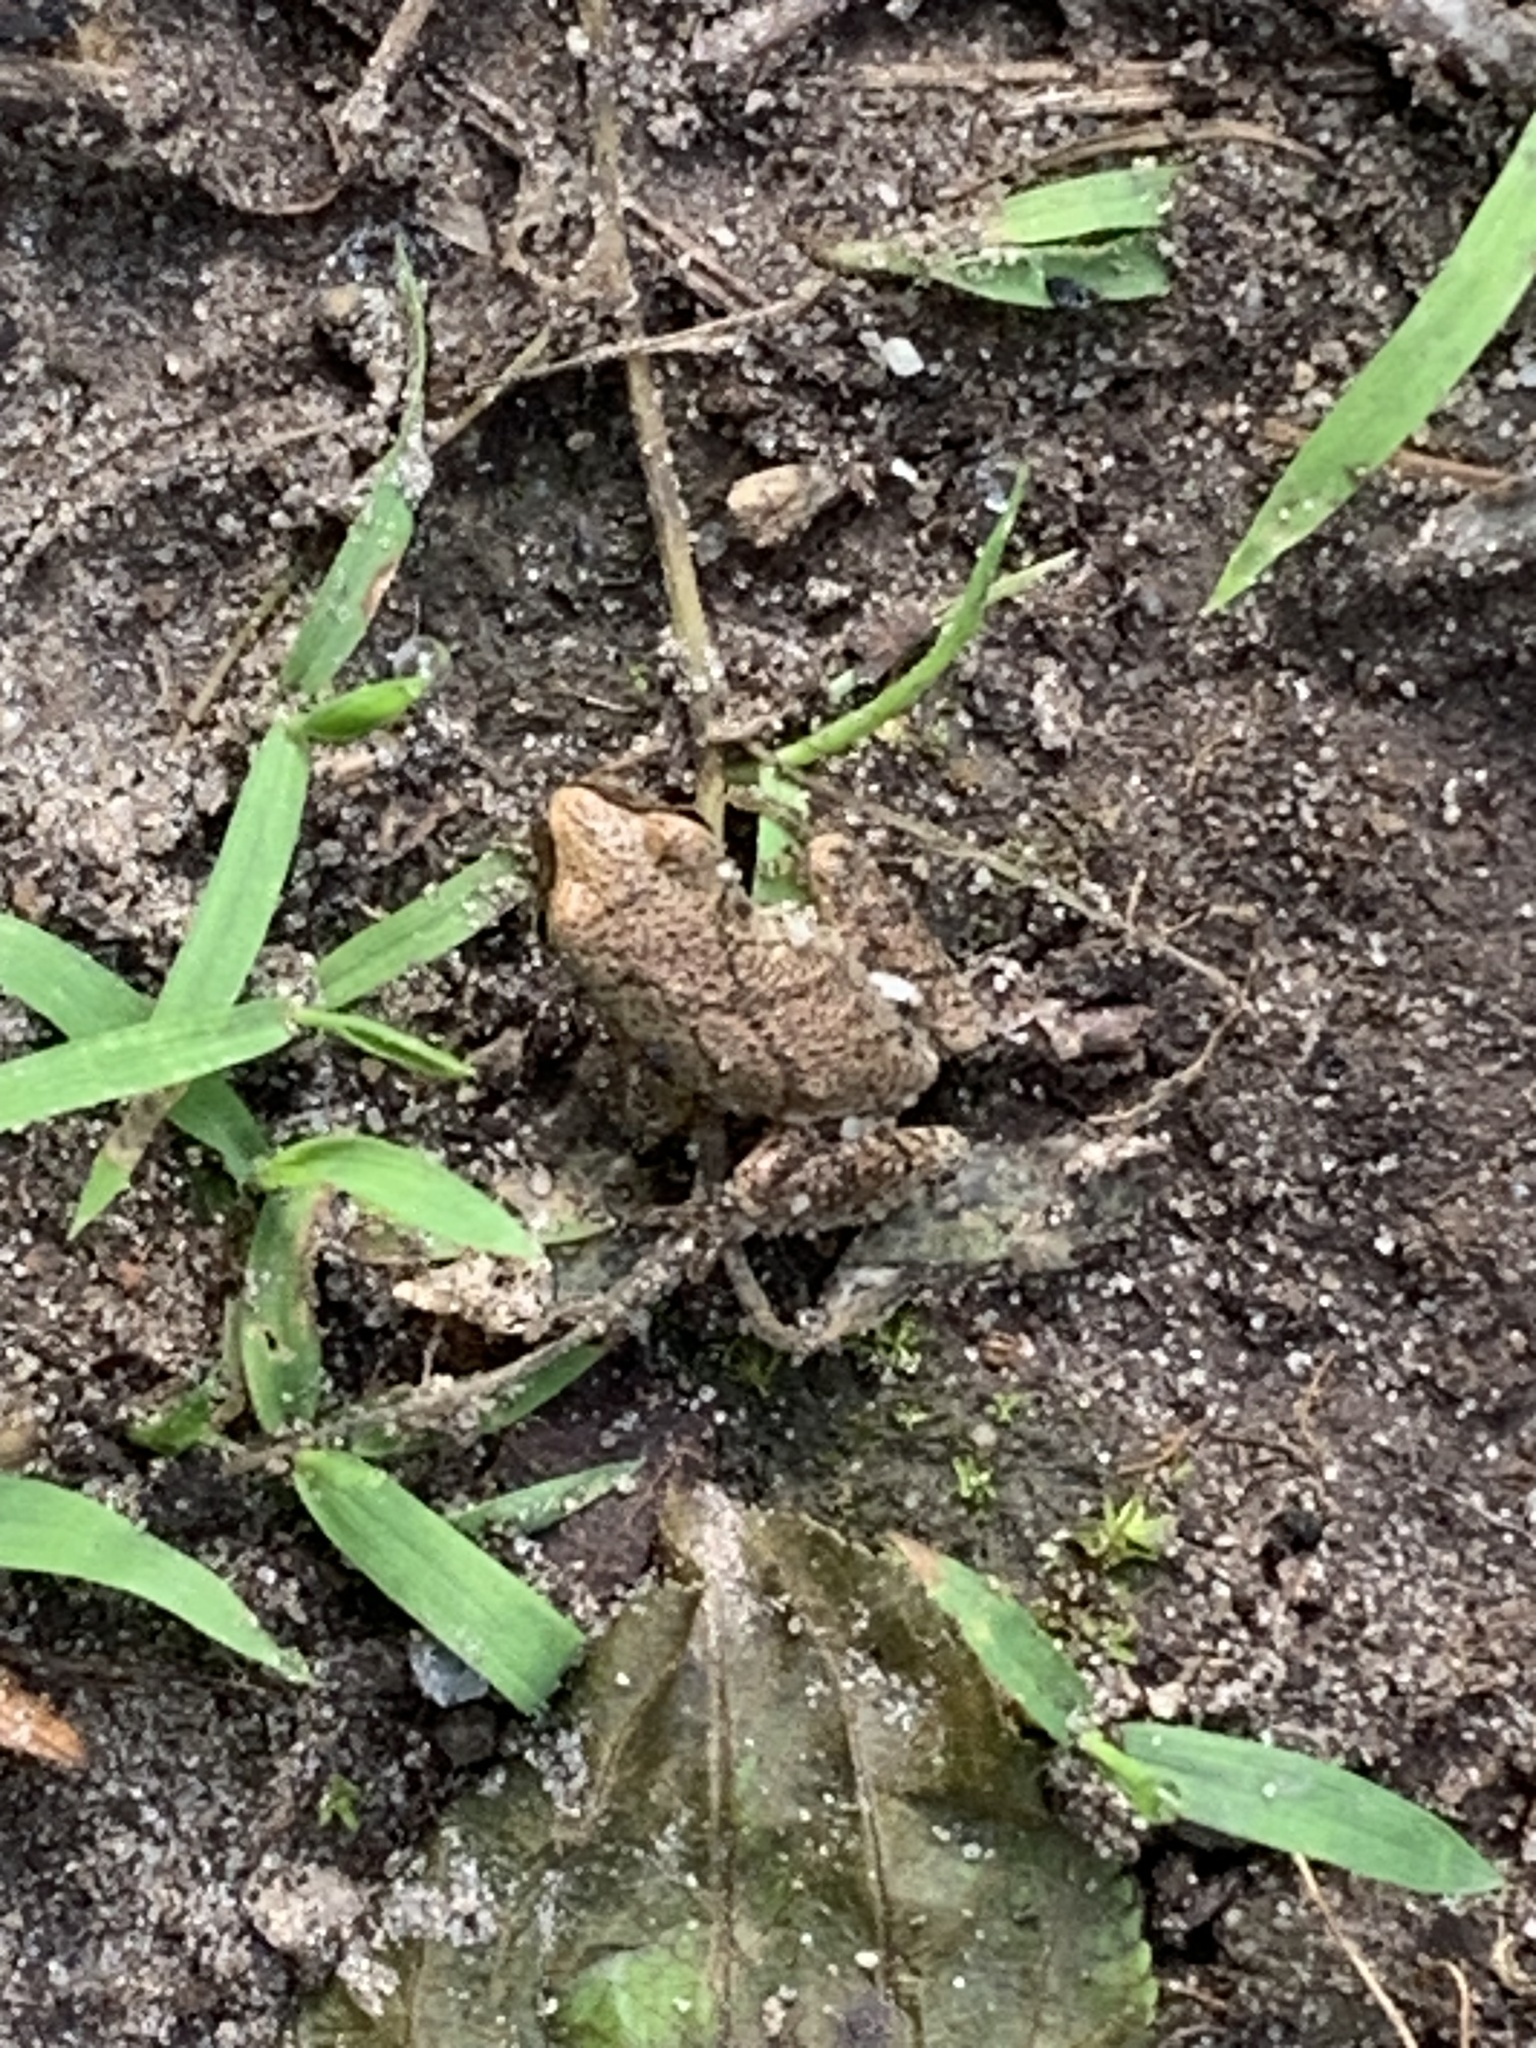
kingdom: Animalia
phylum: Chordata
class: Amphibia
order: Anura
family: Hylidae
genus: Pseudacris
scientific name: Pseudacris crucifer
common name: Spring peeper
